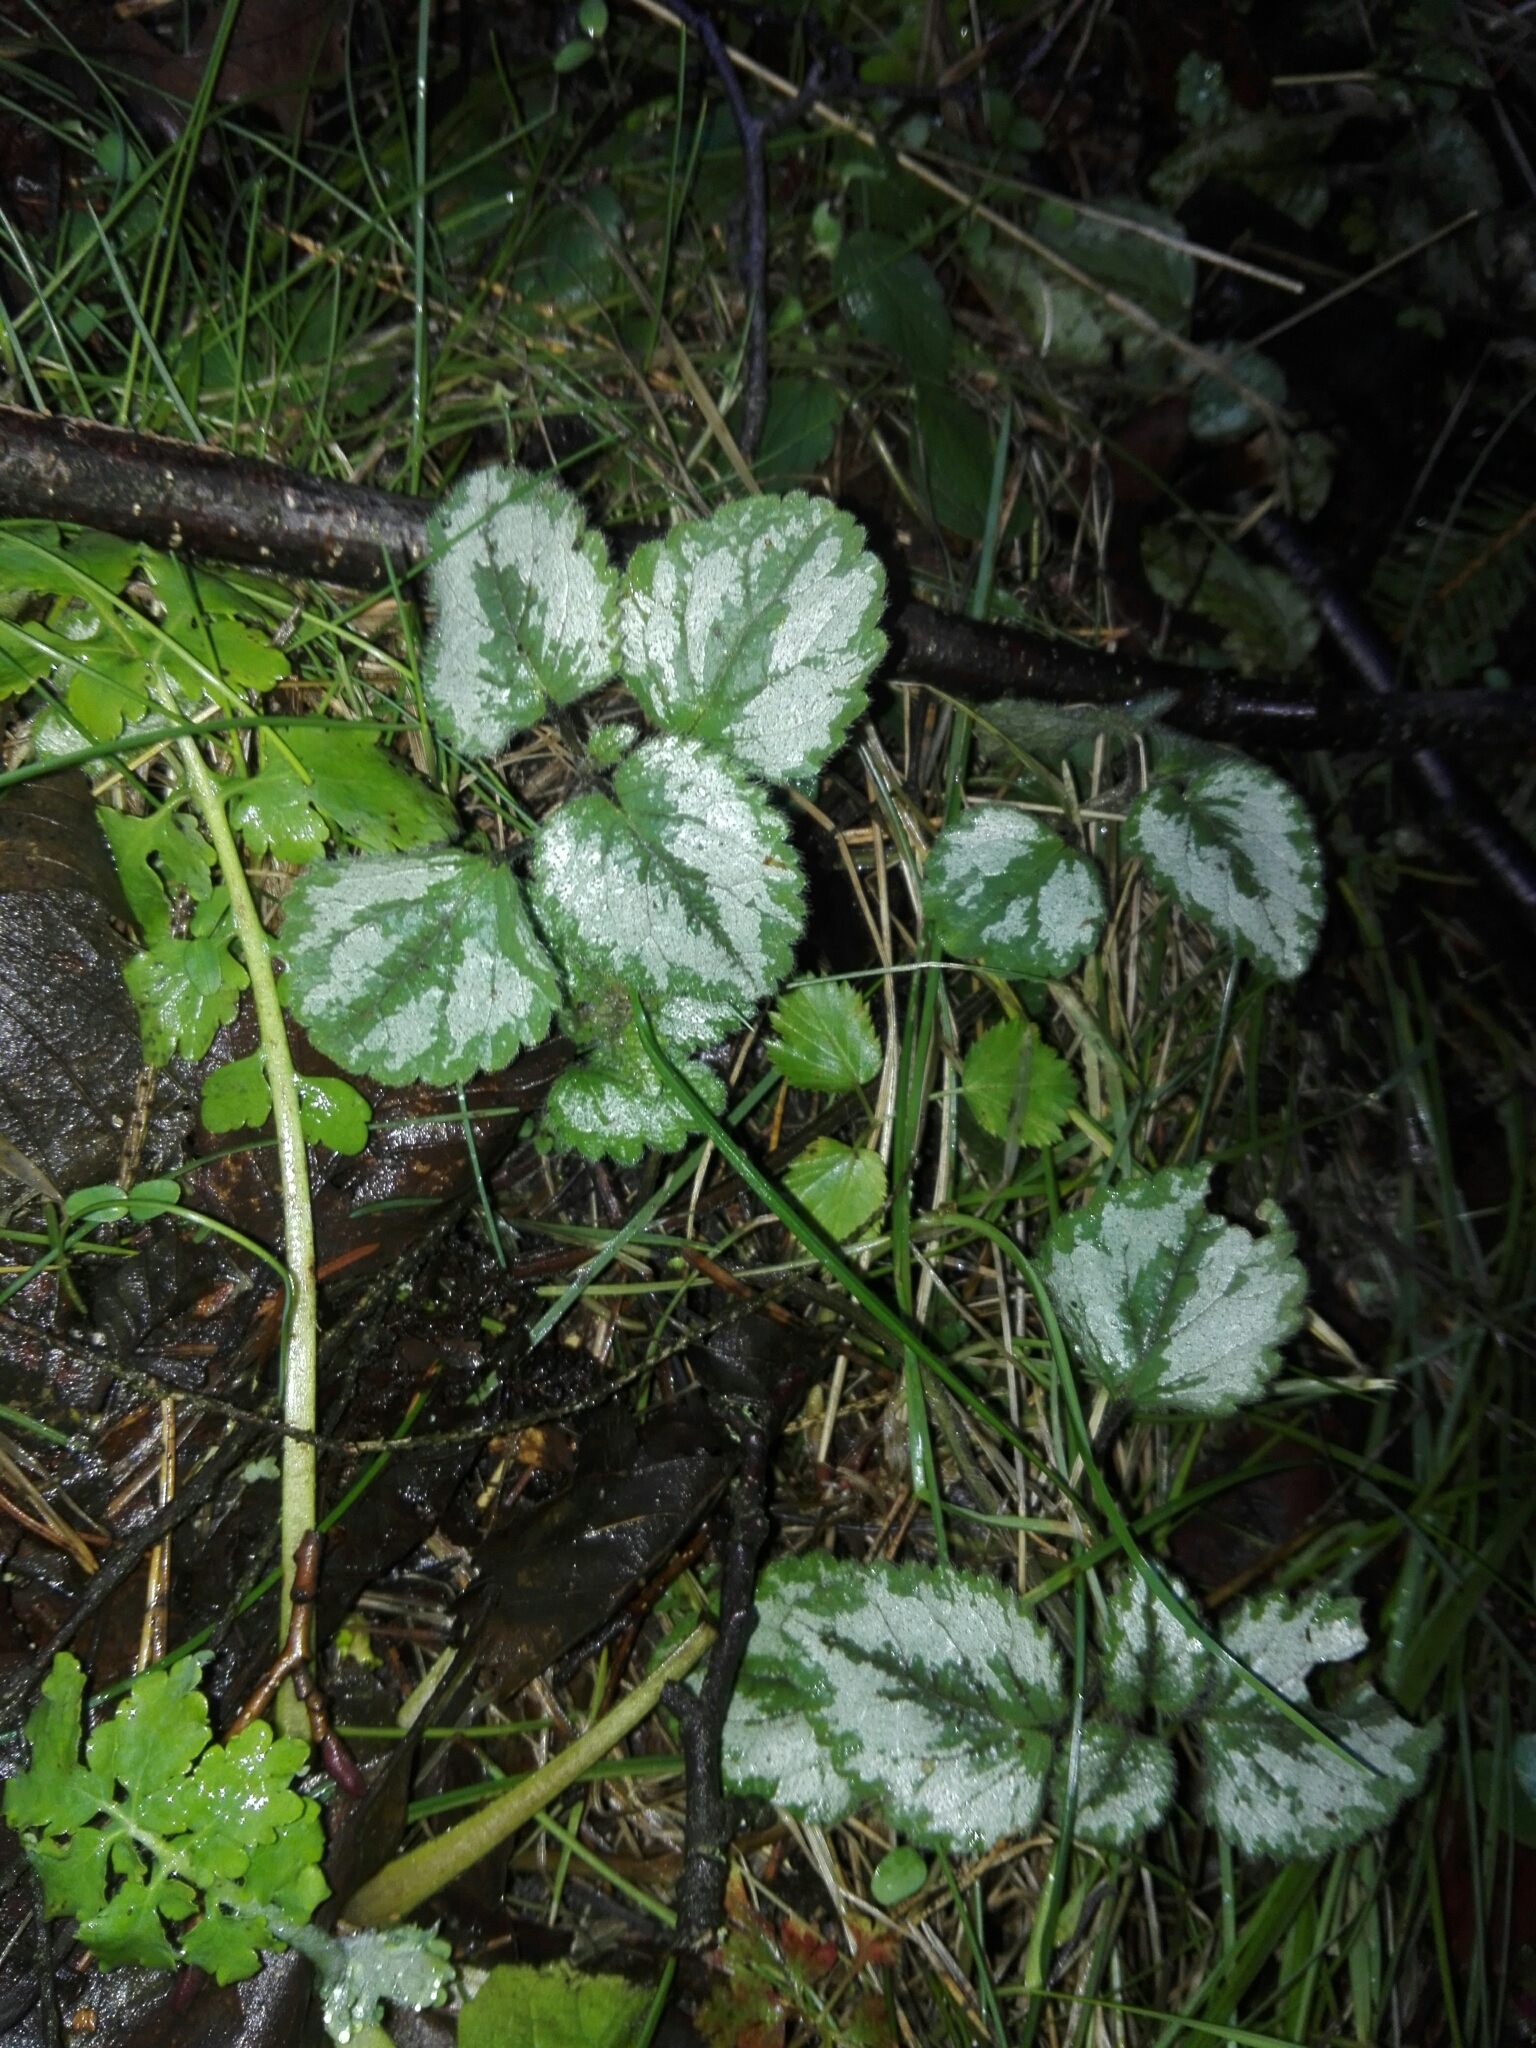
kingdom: Plantae
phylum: Tracheophyta
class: Magnoliopsida
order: Lamiales
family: Lamiaceae
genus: Lamium
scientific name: Lamium galeobdolon
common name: Yellow archangel
